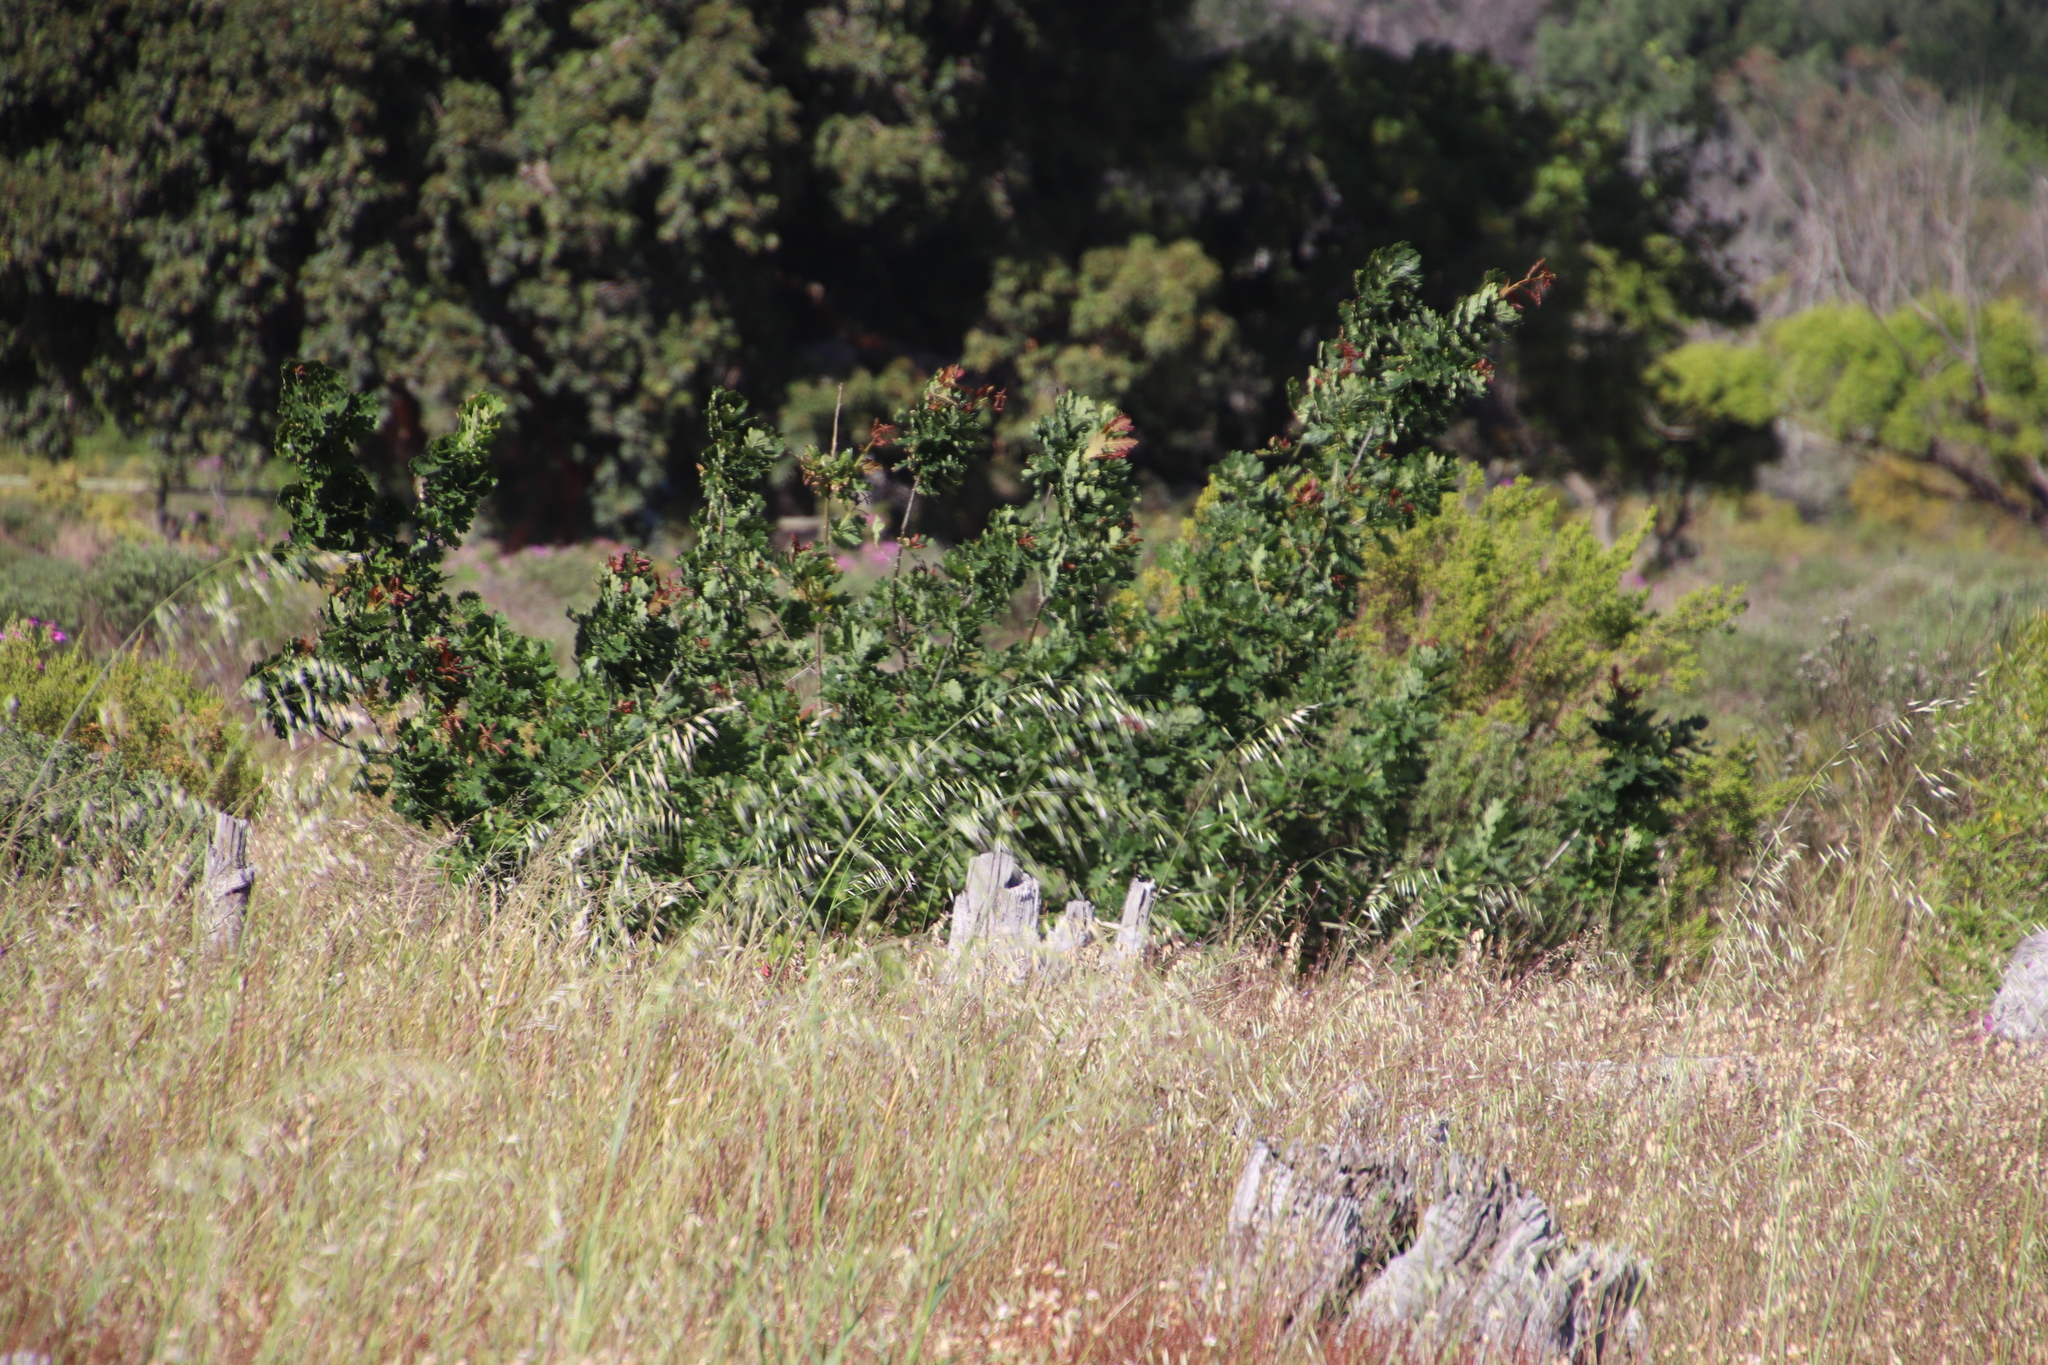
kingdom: Plantae
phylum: Tracheophyta
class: Magnoliopsida
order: Sapindales
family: Meliaceae
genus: Ekebergia
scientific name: Ekebergia capensis
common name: Cape-ash
